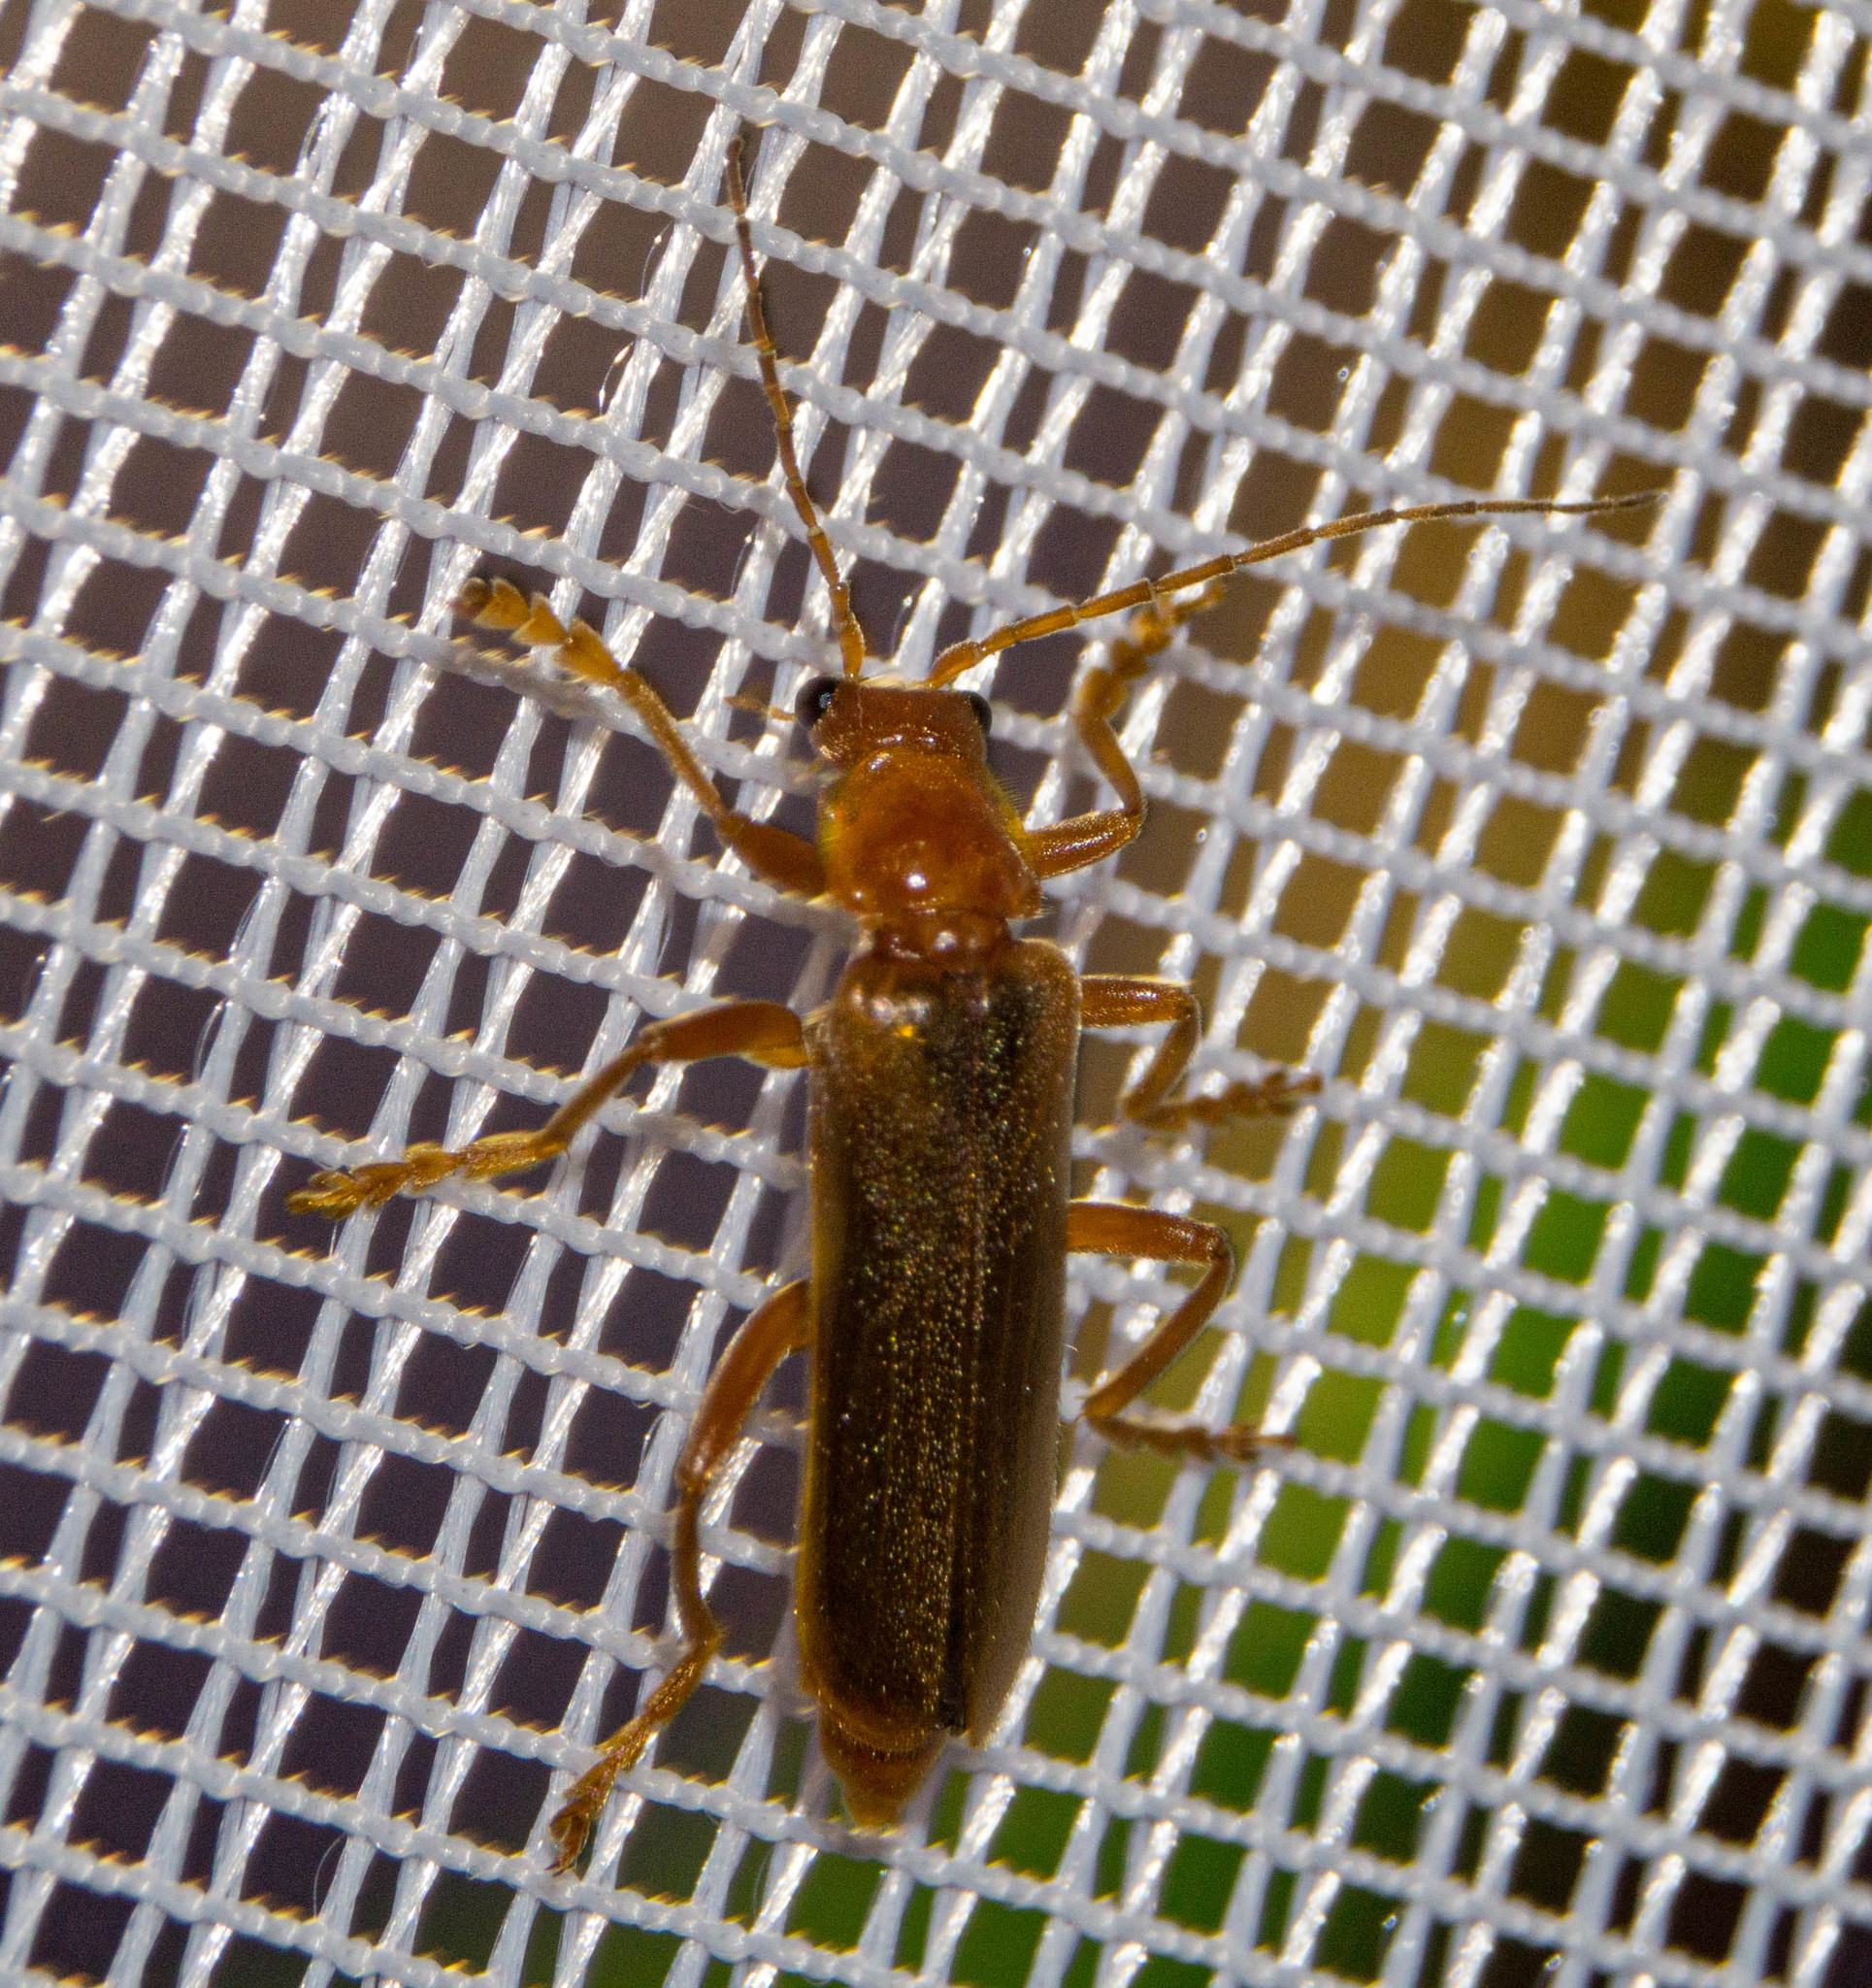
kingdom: Animalia
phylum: Arthropoda
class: Insecta
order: Coleoptera
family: Cantharidae
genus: Cantharis
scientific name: Cantharis rufa
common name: Red-spotted soldier beetle
